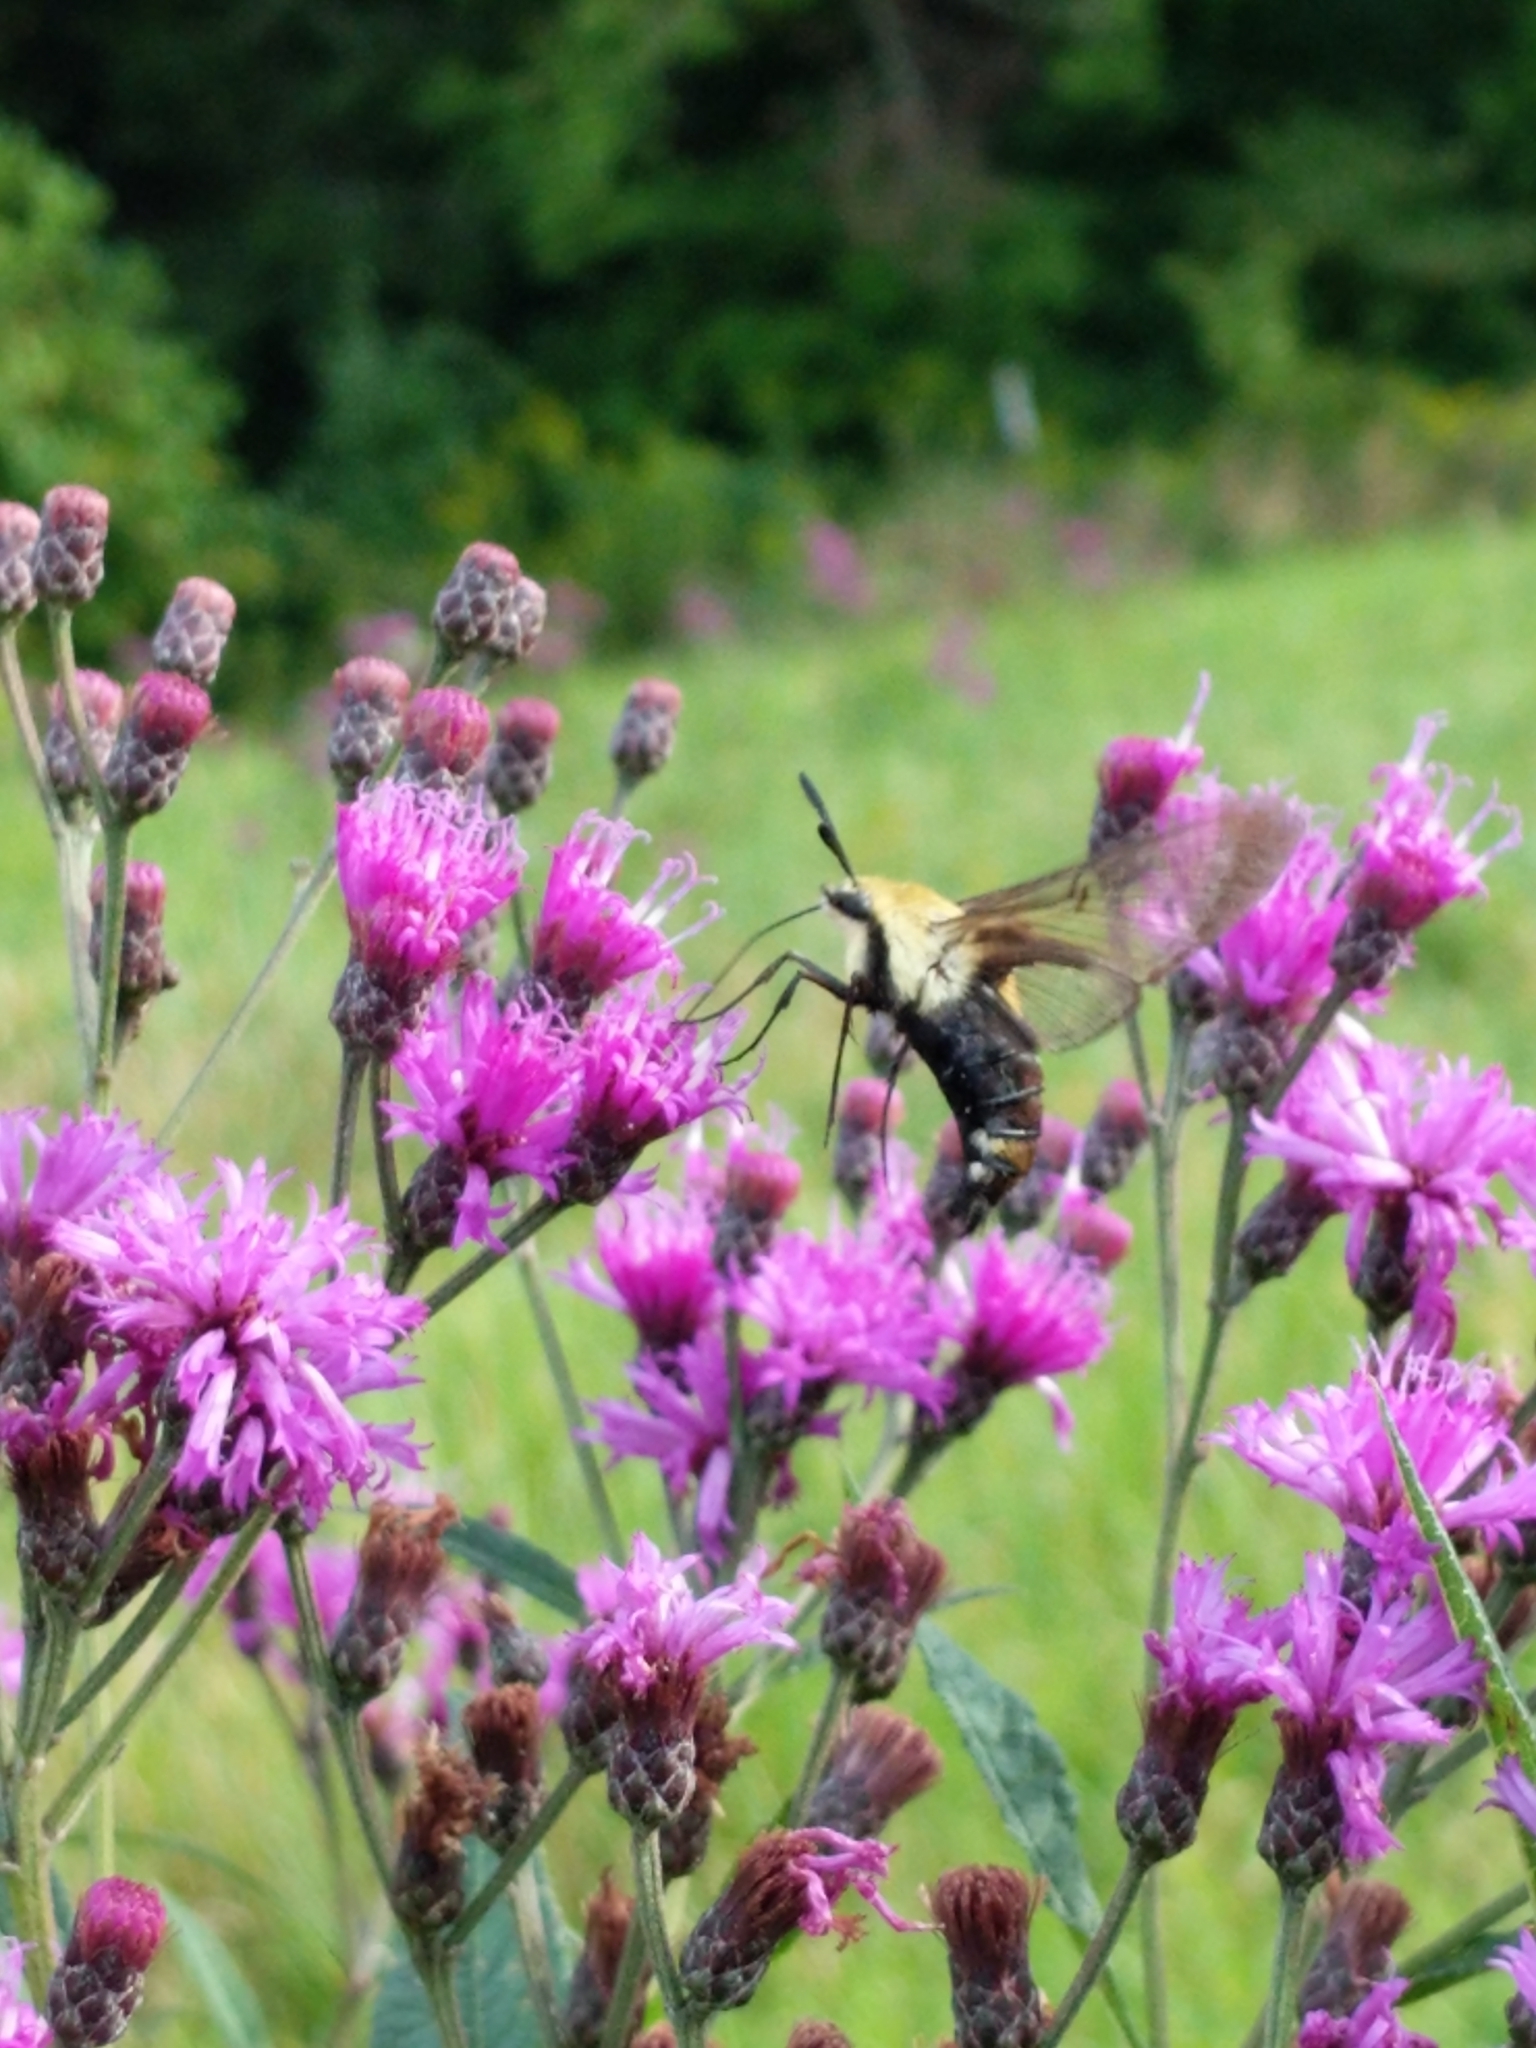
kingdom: Animalia
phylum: Arthropoda
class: Insecta
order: Lepidoptera
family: Sphingidae
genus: Hemaris
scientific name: Hemaris diffinis
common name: Bumblebee moth
